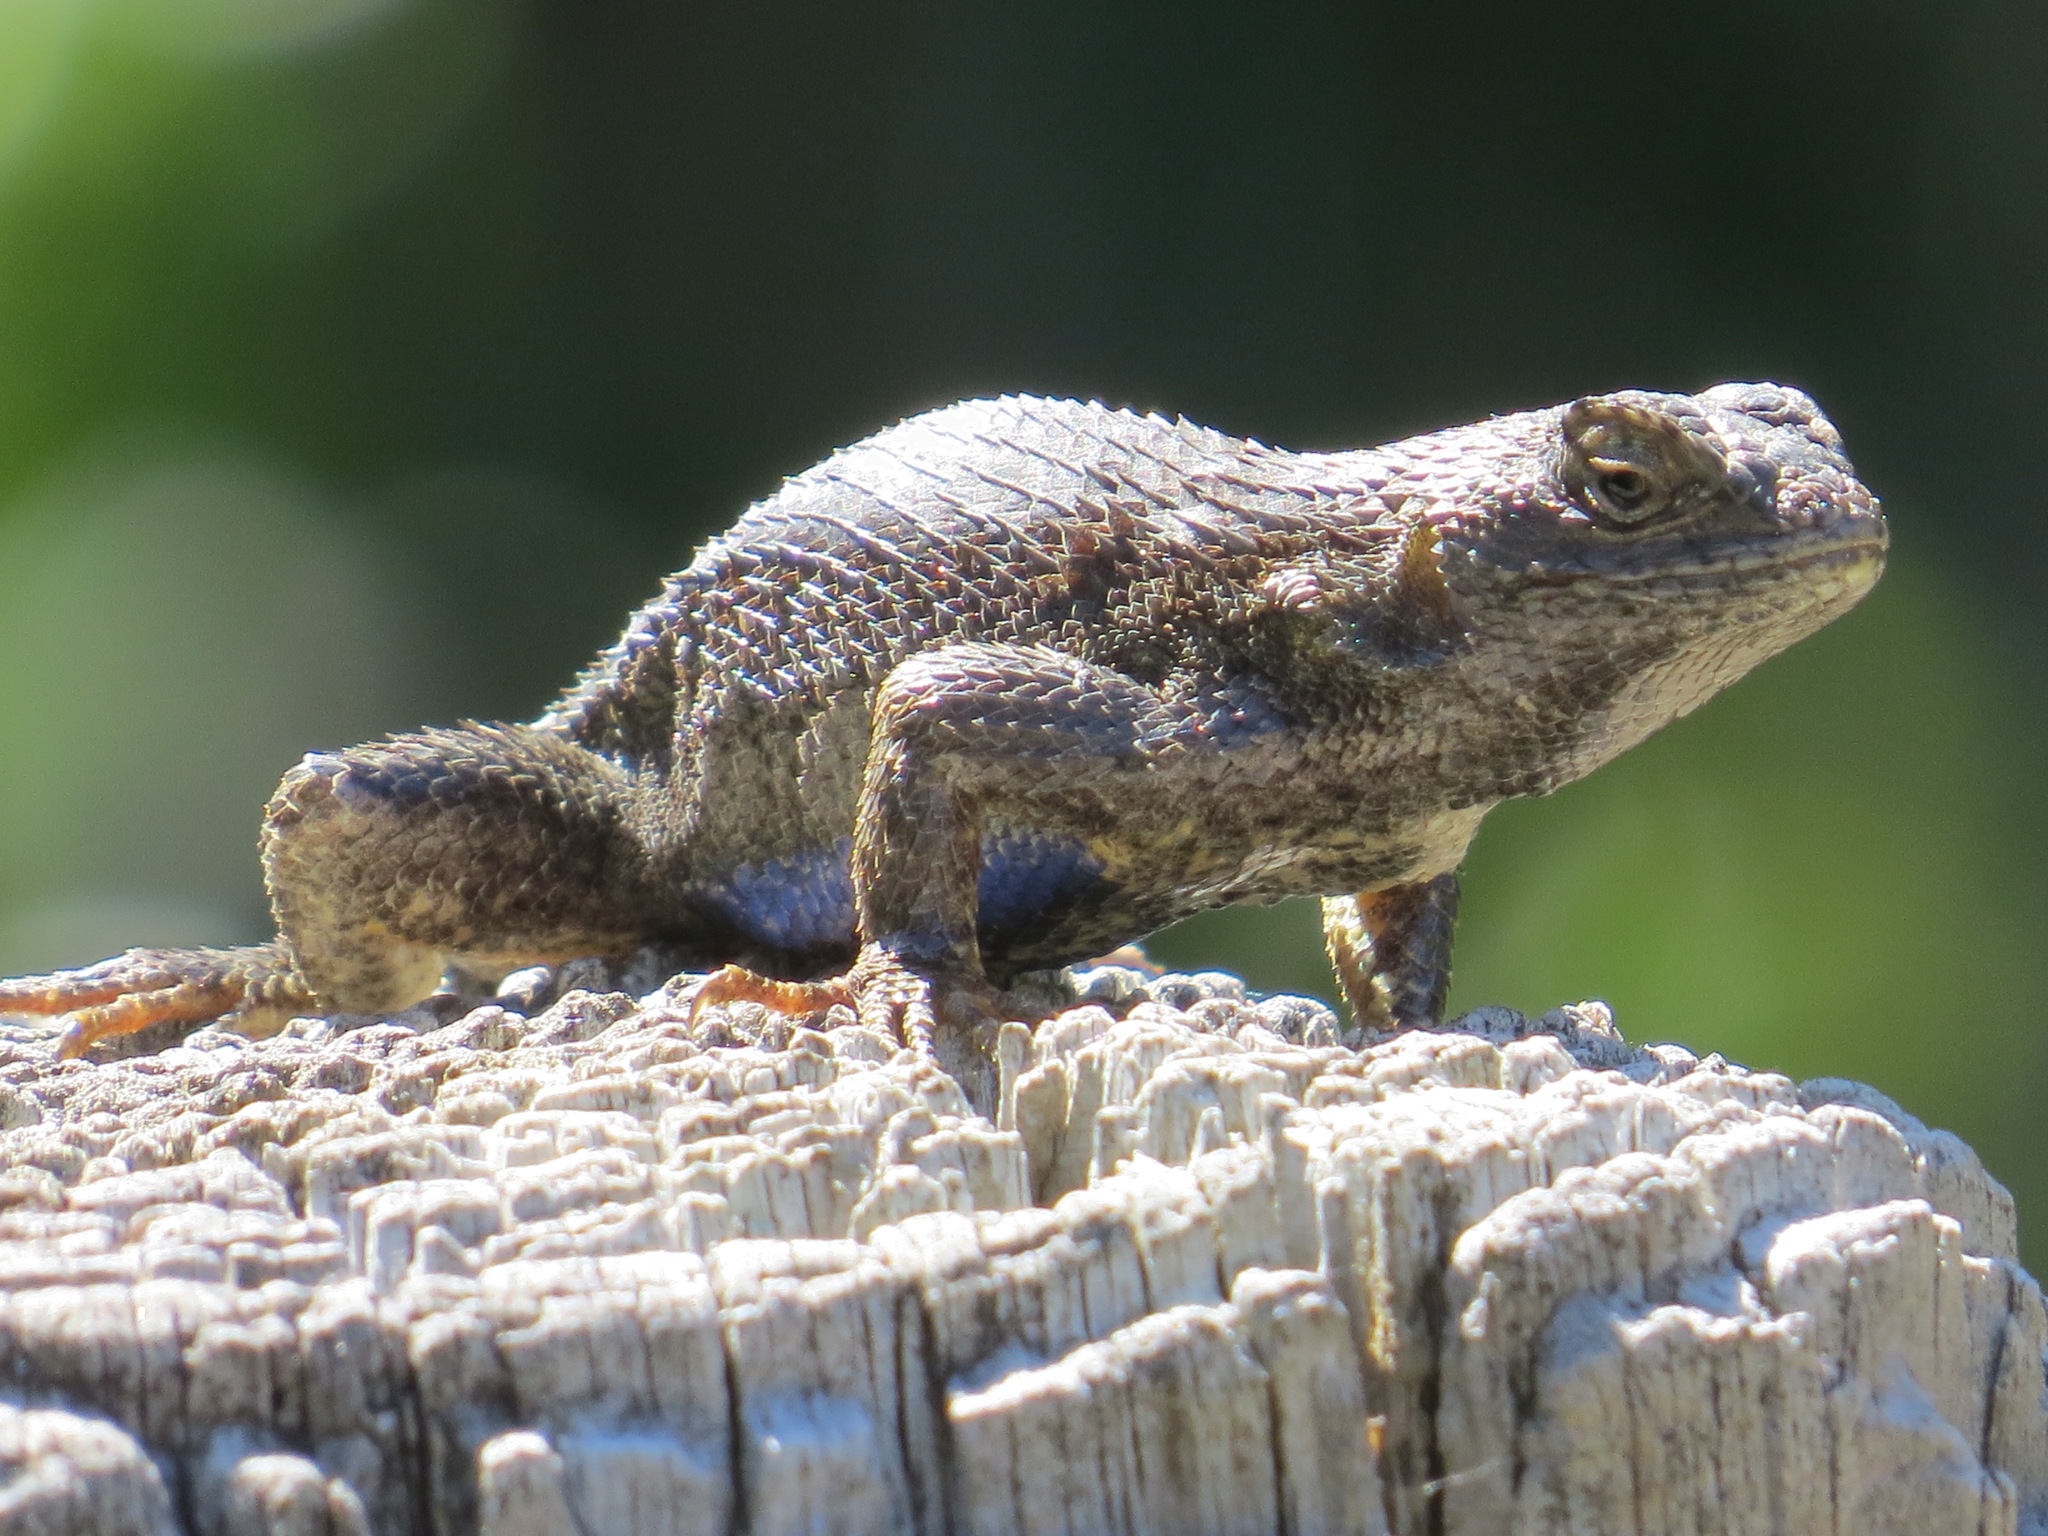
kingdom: Animalia
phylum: Chordata
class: Squamata
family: Phrynosomatidae
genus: Sceloporus
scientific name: Sceloporus occidentalis
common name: Western fence lizard
